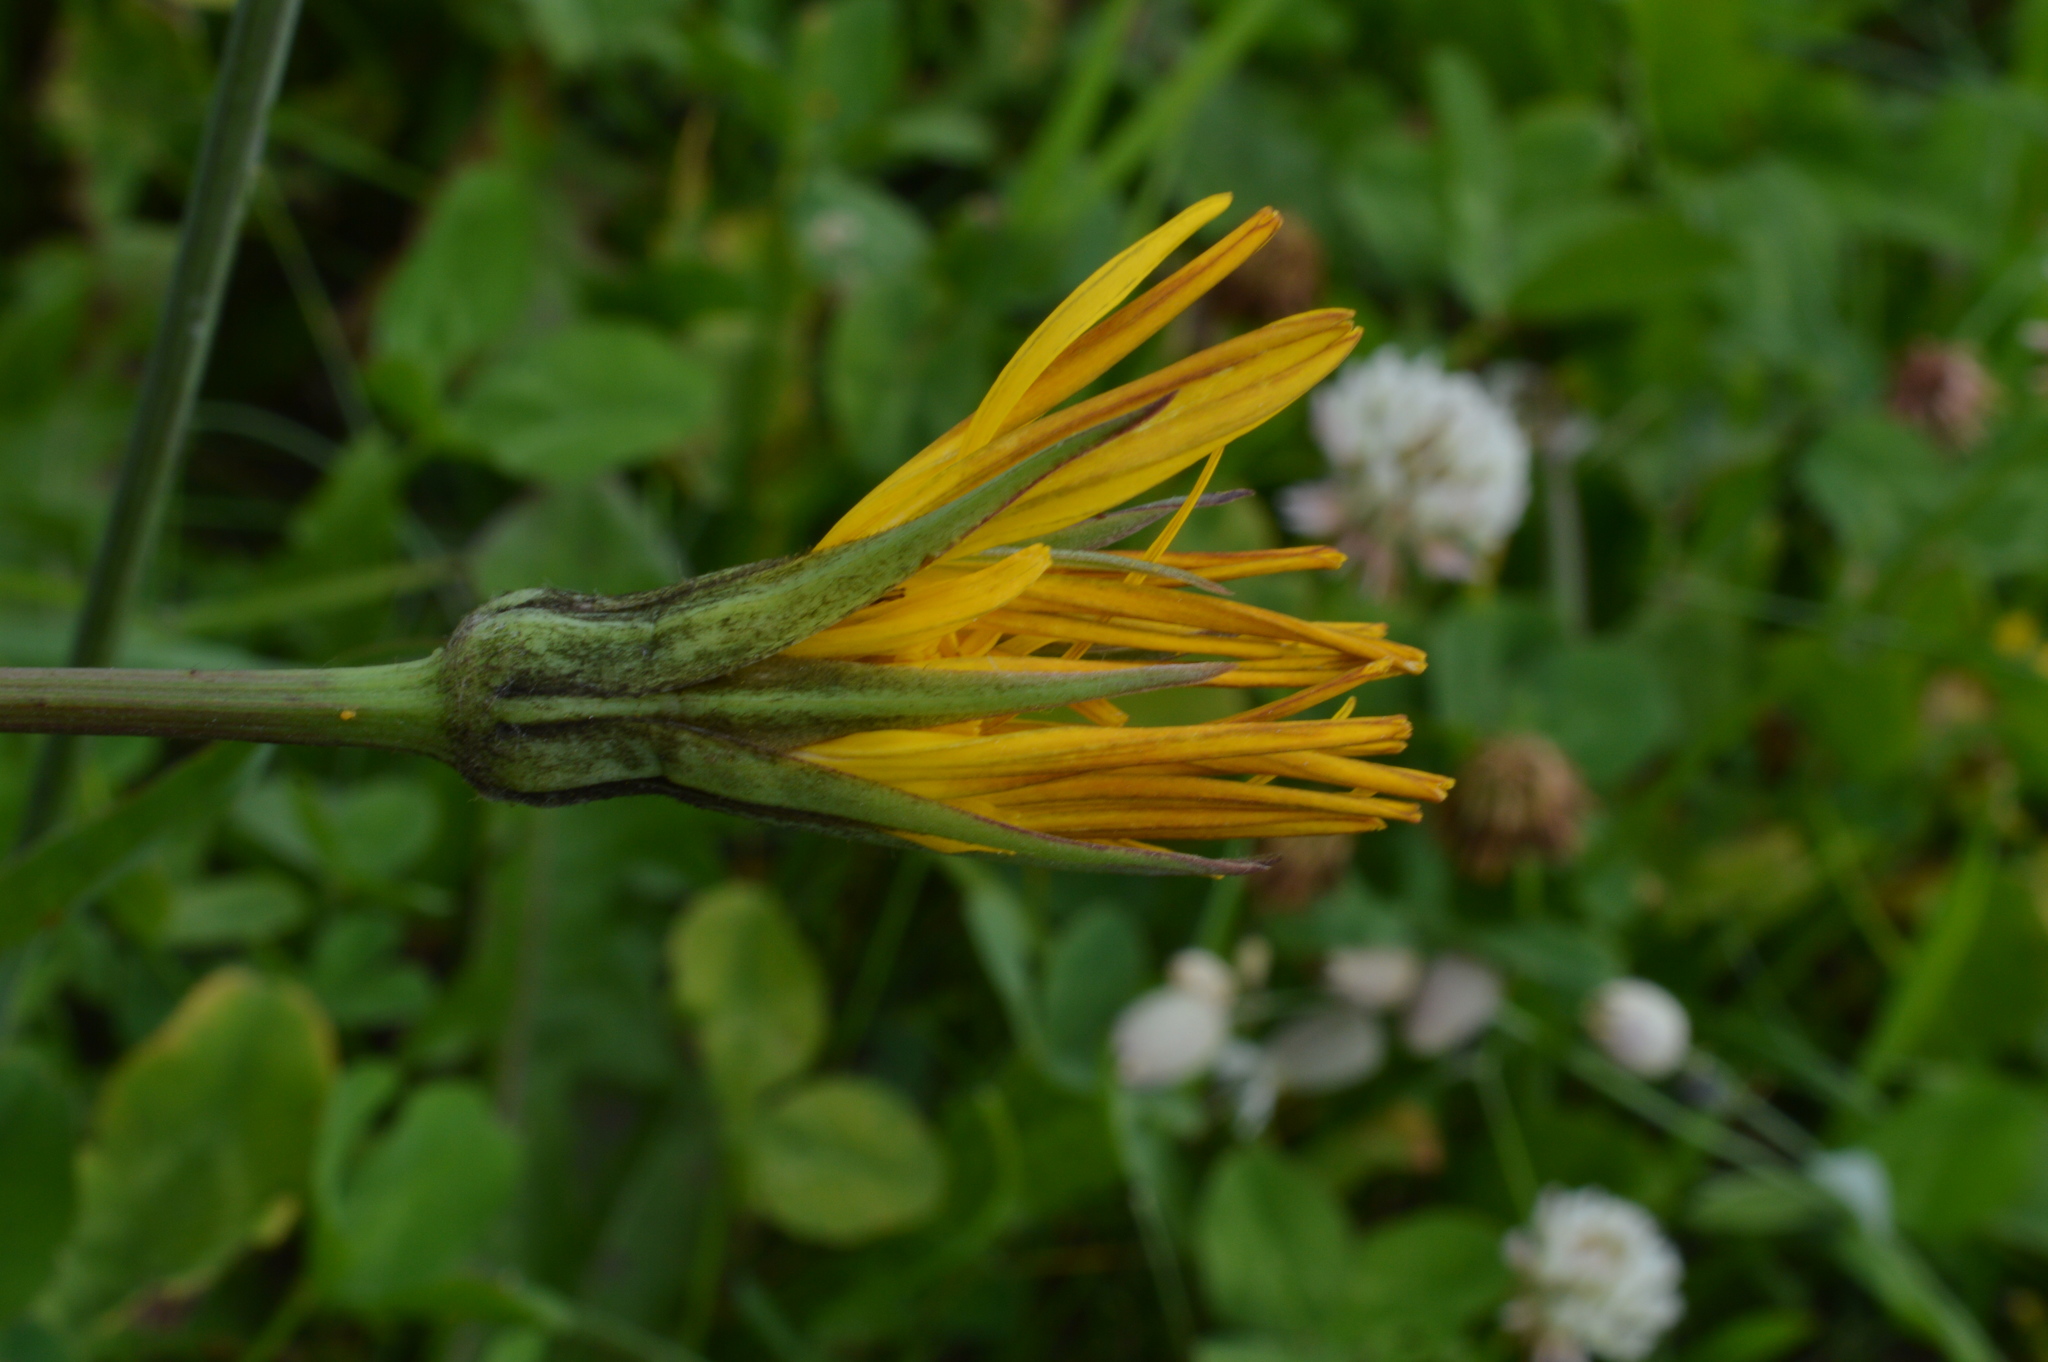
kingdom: Plantae
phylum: Tracheophyta
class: Magnoliopsida
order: Asterales
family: Asteraceae
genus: Tragopogon
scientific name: Tragopogon pratensis
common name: Goat's-beard
